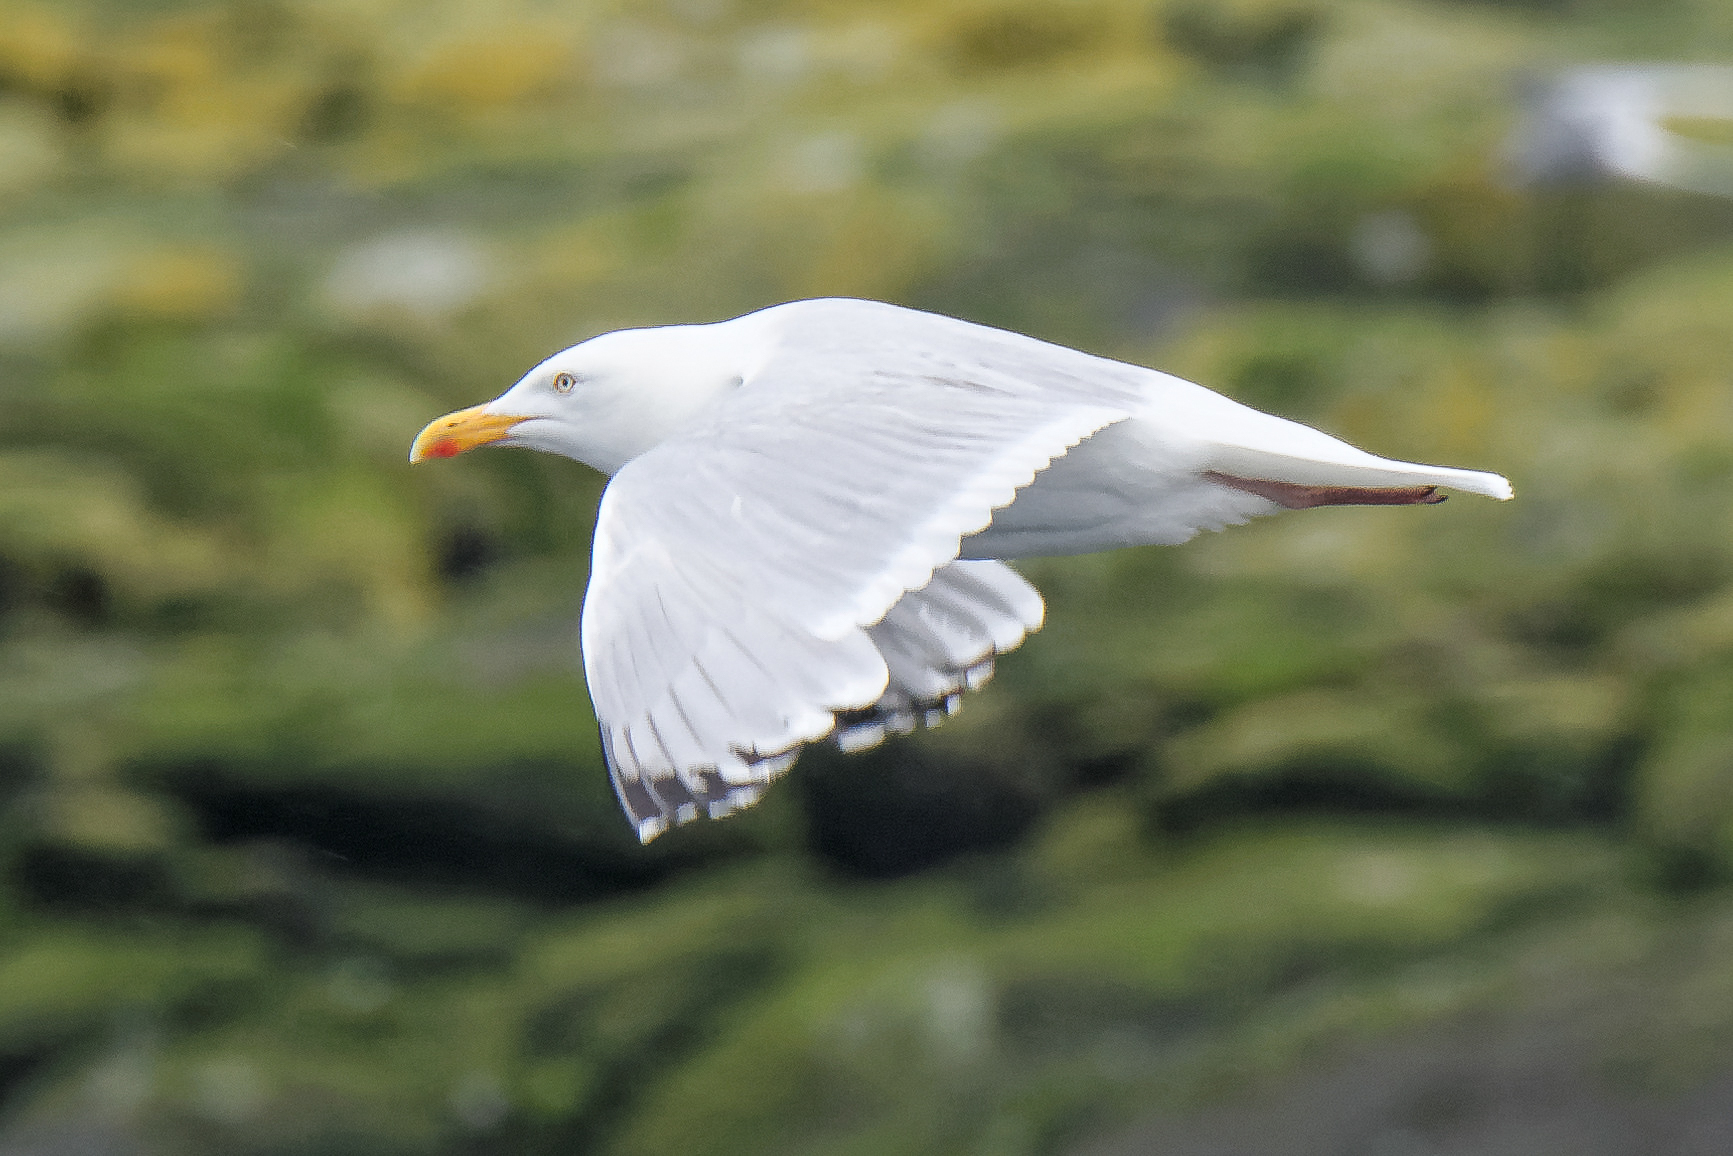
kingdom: Animalia
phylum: Chordata
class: Aves
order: Charadriiformes
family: Laridae
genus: Larus
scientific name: Larus argentatus
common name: Herring gull
